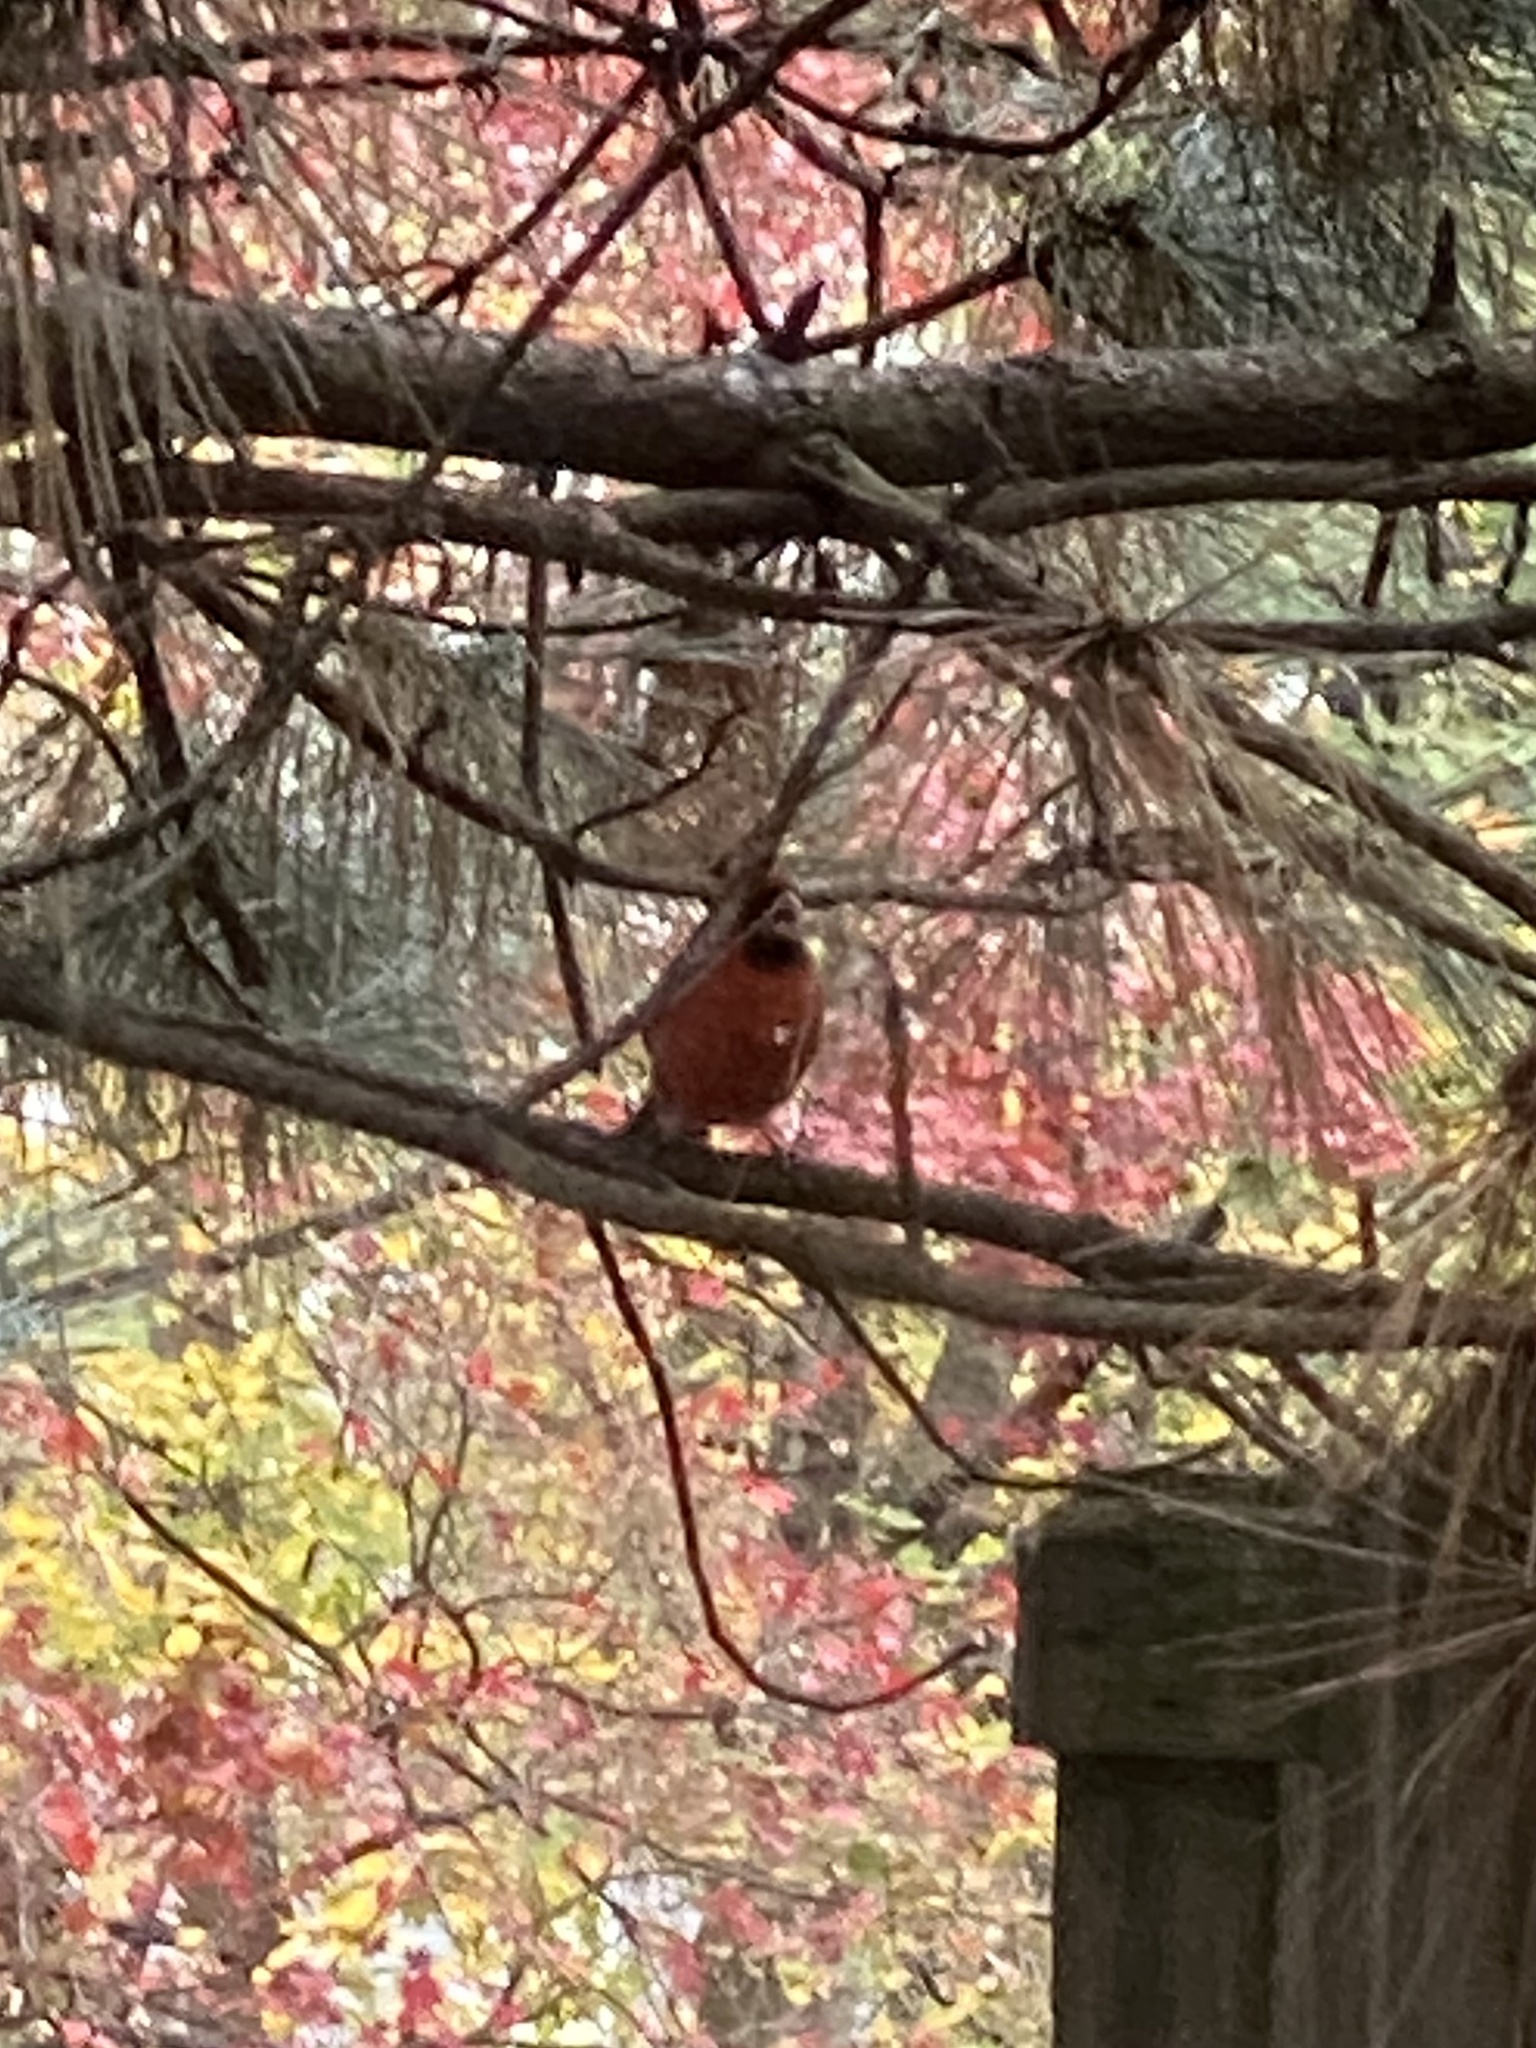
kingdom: Animalia
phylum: Chordata
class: Aves
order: Passeriformes
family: Cardinalidae
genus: Cardinalis
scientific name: Cardinalis cardinalis
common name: Northern cardinal
